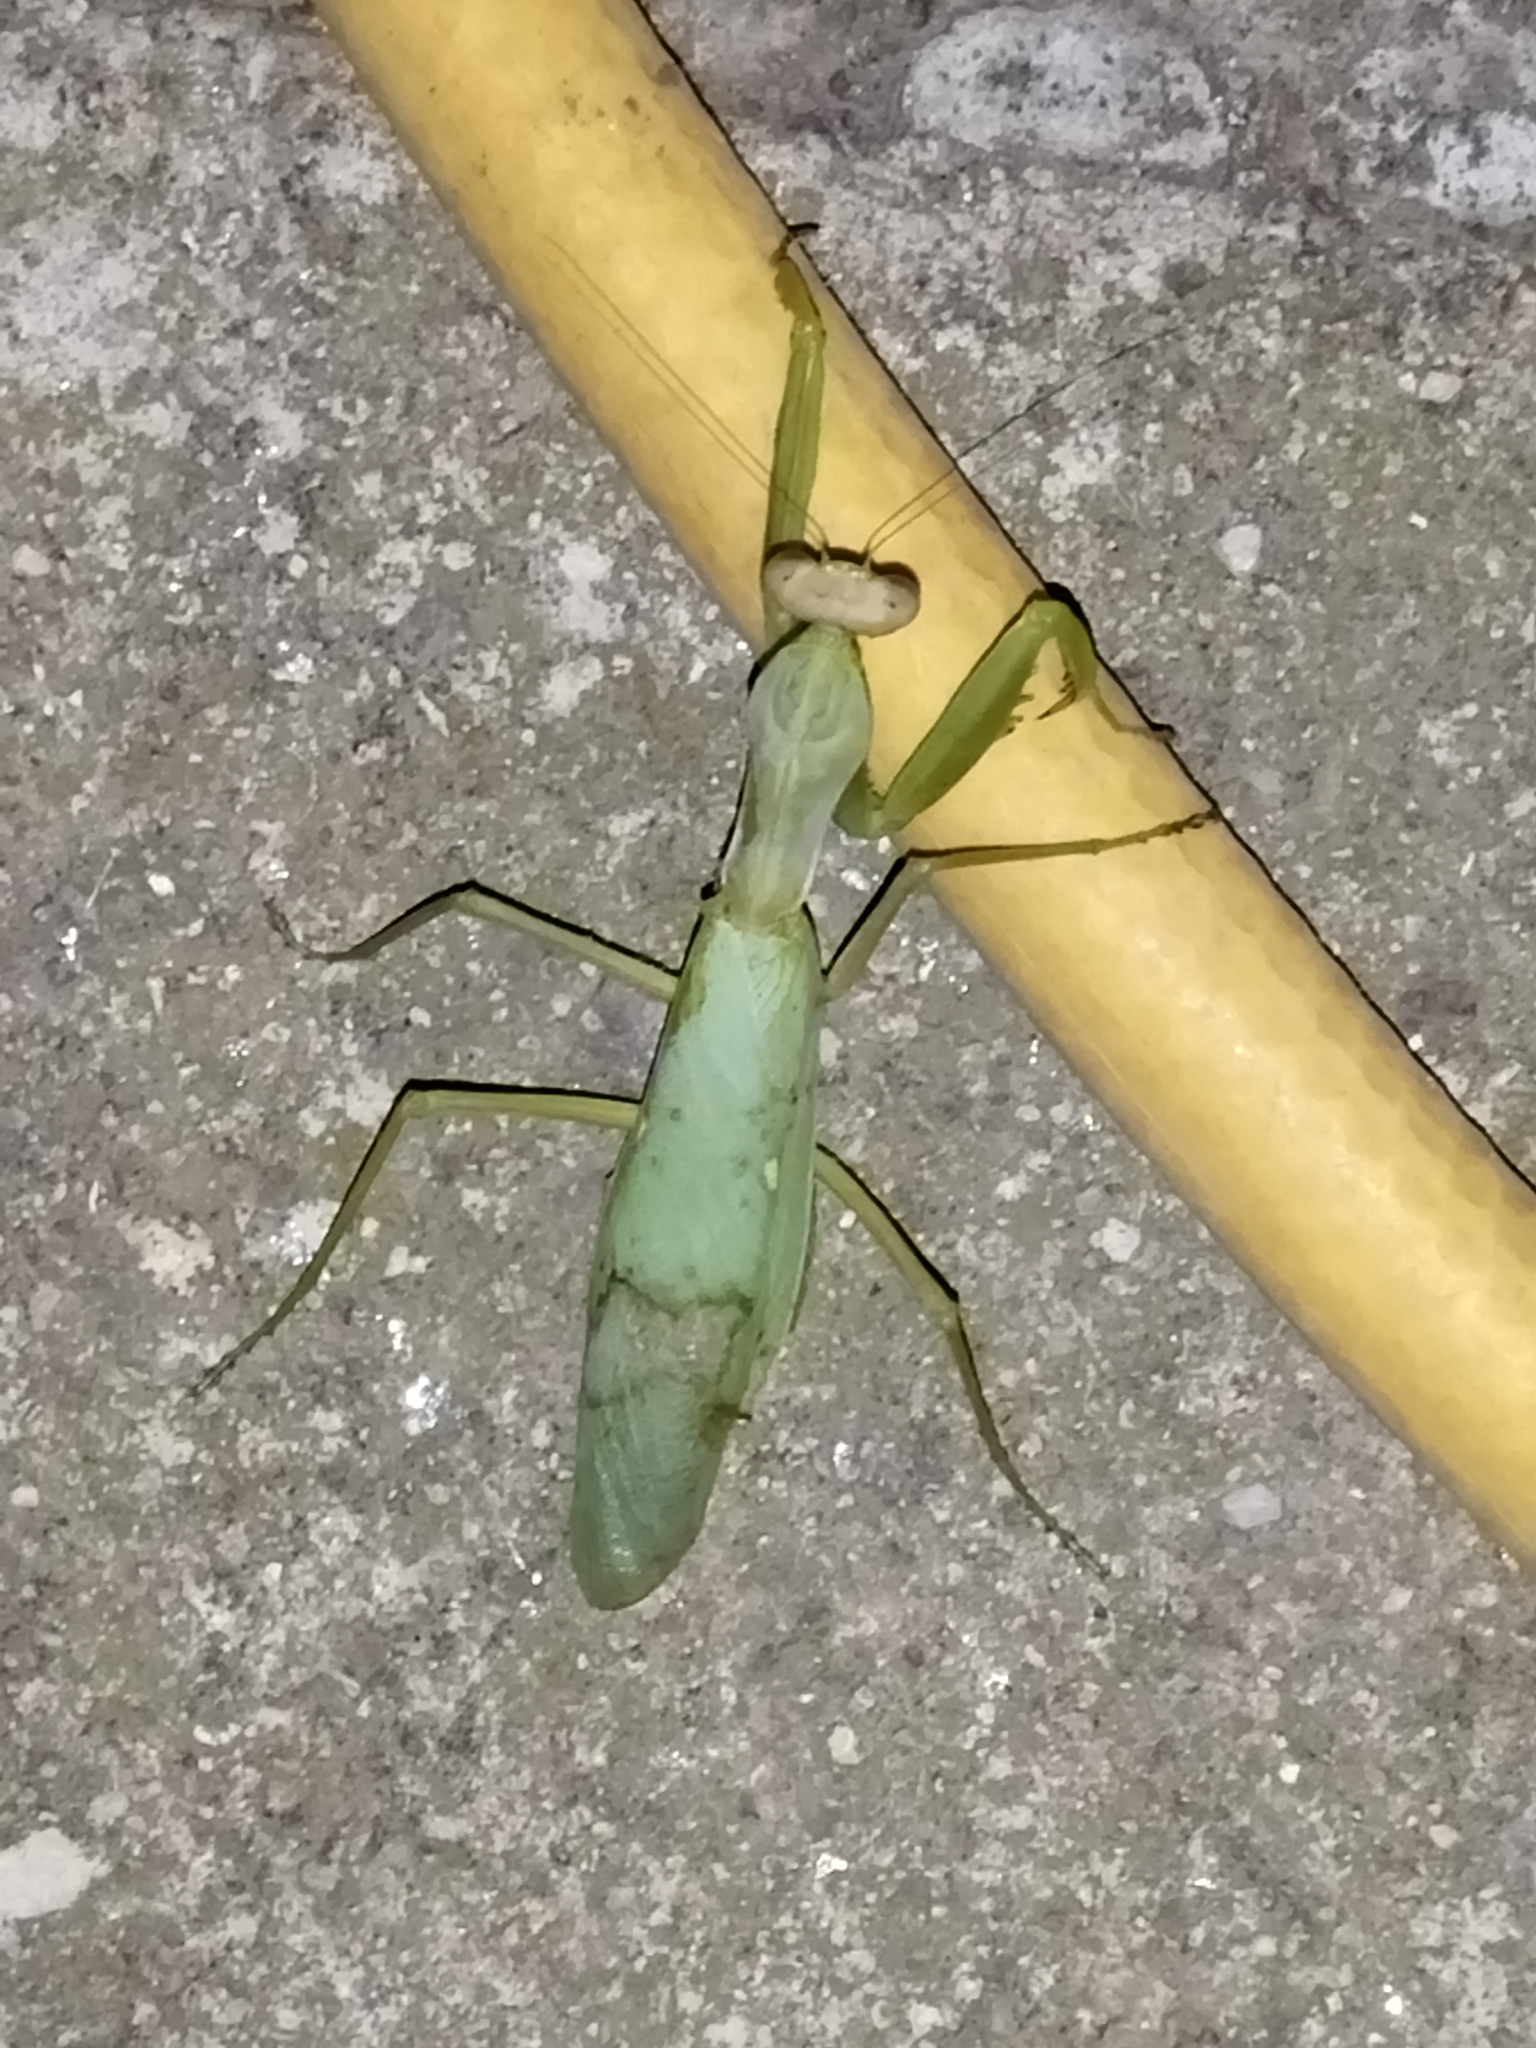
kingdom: Animalia
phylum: Arthropoda
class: Insecta
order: Mantodea
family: Mantidae
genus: Hierodula
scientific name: Hierodula transcaucasica
